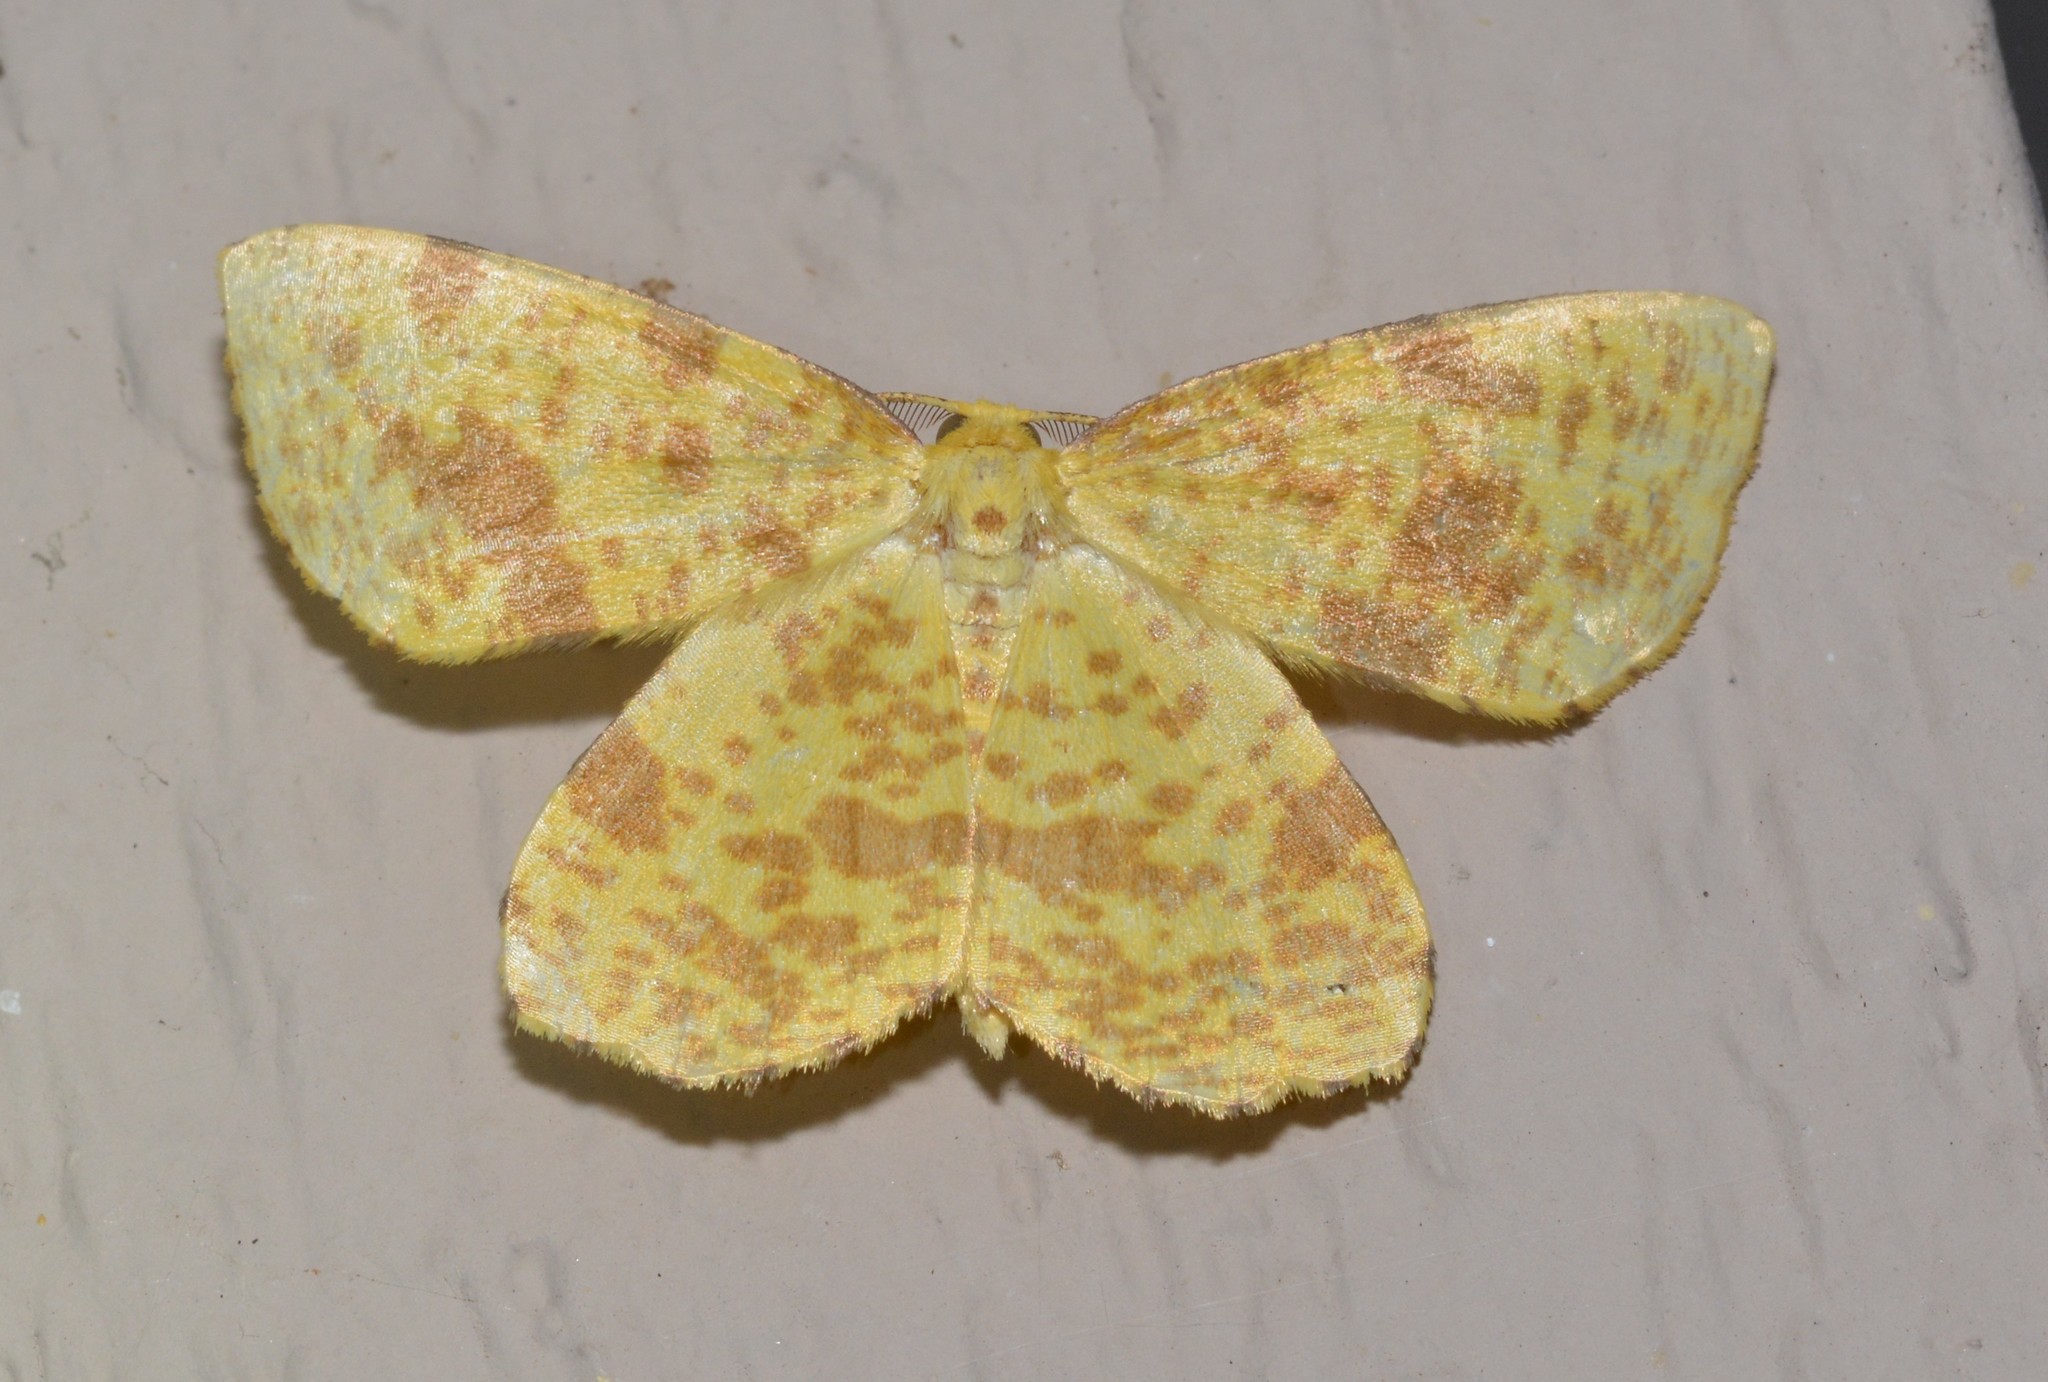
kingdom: Animalia
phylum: Arthropoda
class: Insecta
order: Lepidoptera
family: Geometridae
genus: Xanthotype
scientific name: Xanthotype
